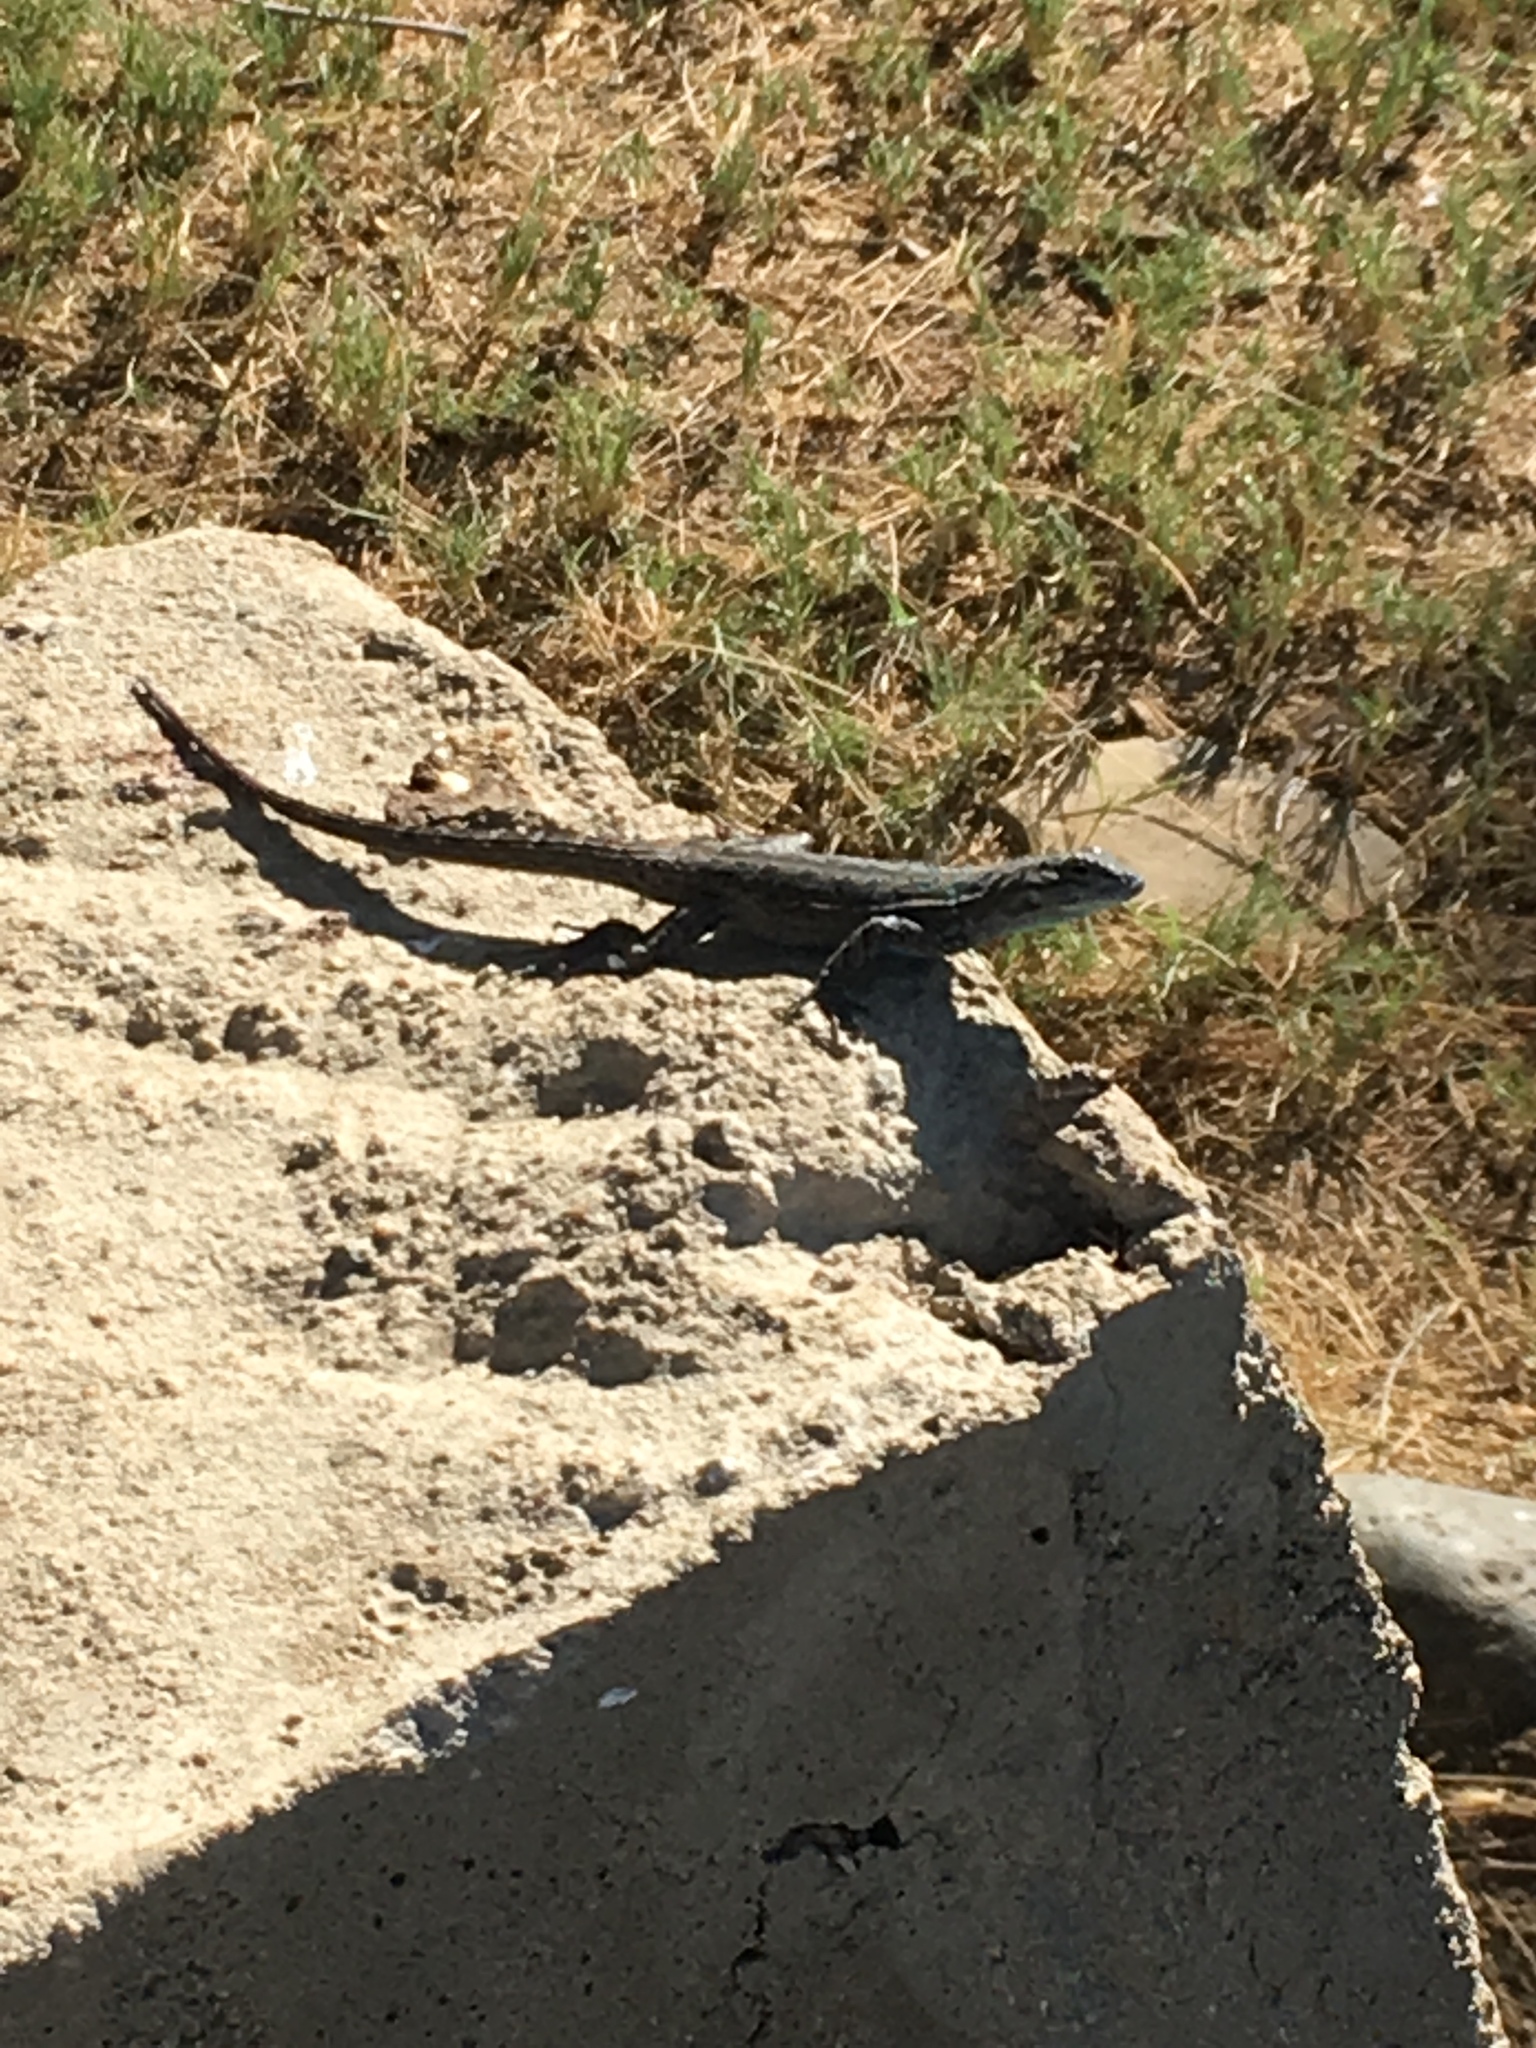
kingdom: Animalia
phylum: Chordata
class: Squamata
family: Phrynosomatidae
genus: Urosaurus
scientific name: Urosaurus nigricauda
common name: Baja california brush lizard
